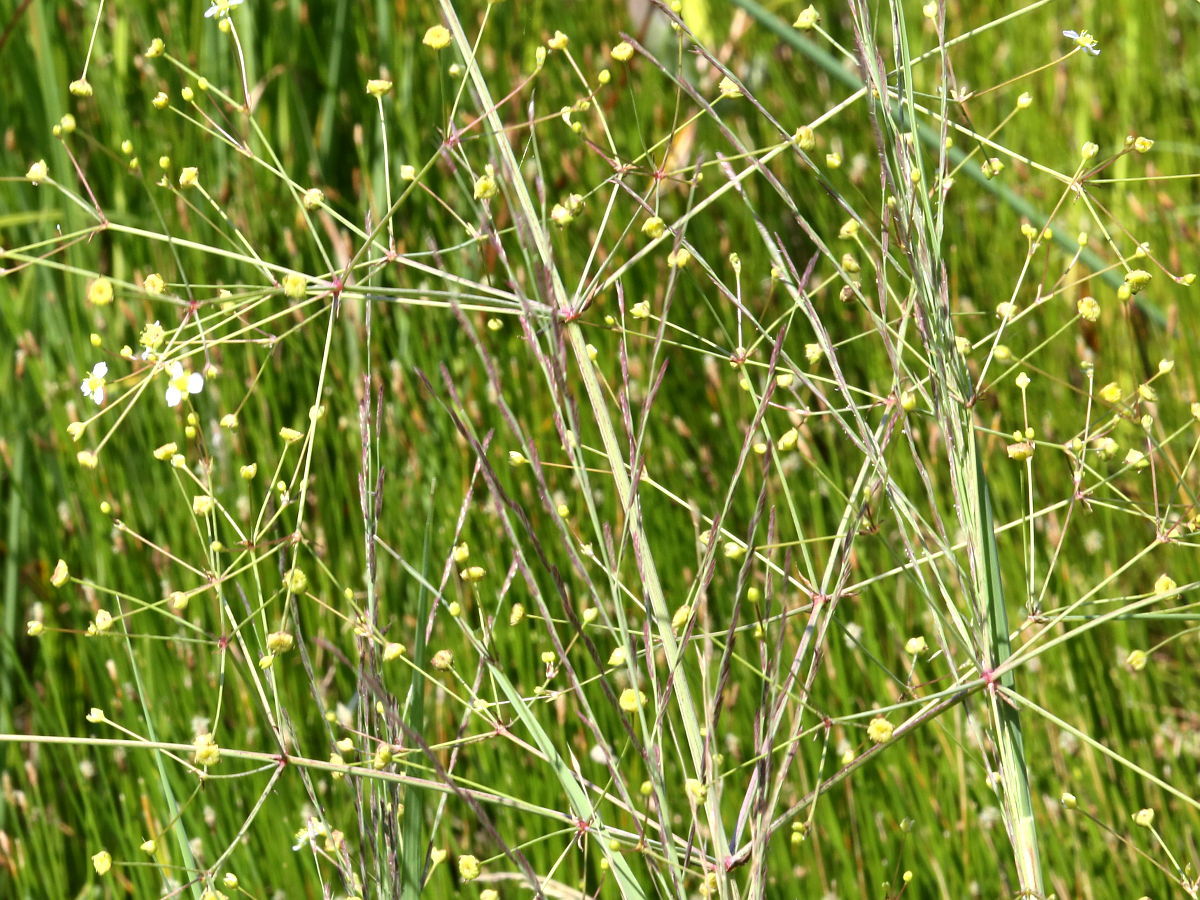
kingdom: Plantae
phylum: Tracheophyta
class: Liliopsida
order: Alismatales
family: Alismataceae
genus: Alisma
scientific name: Alisma subcordatum
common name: Southern water-plantain
